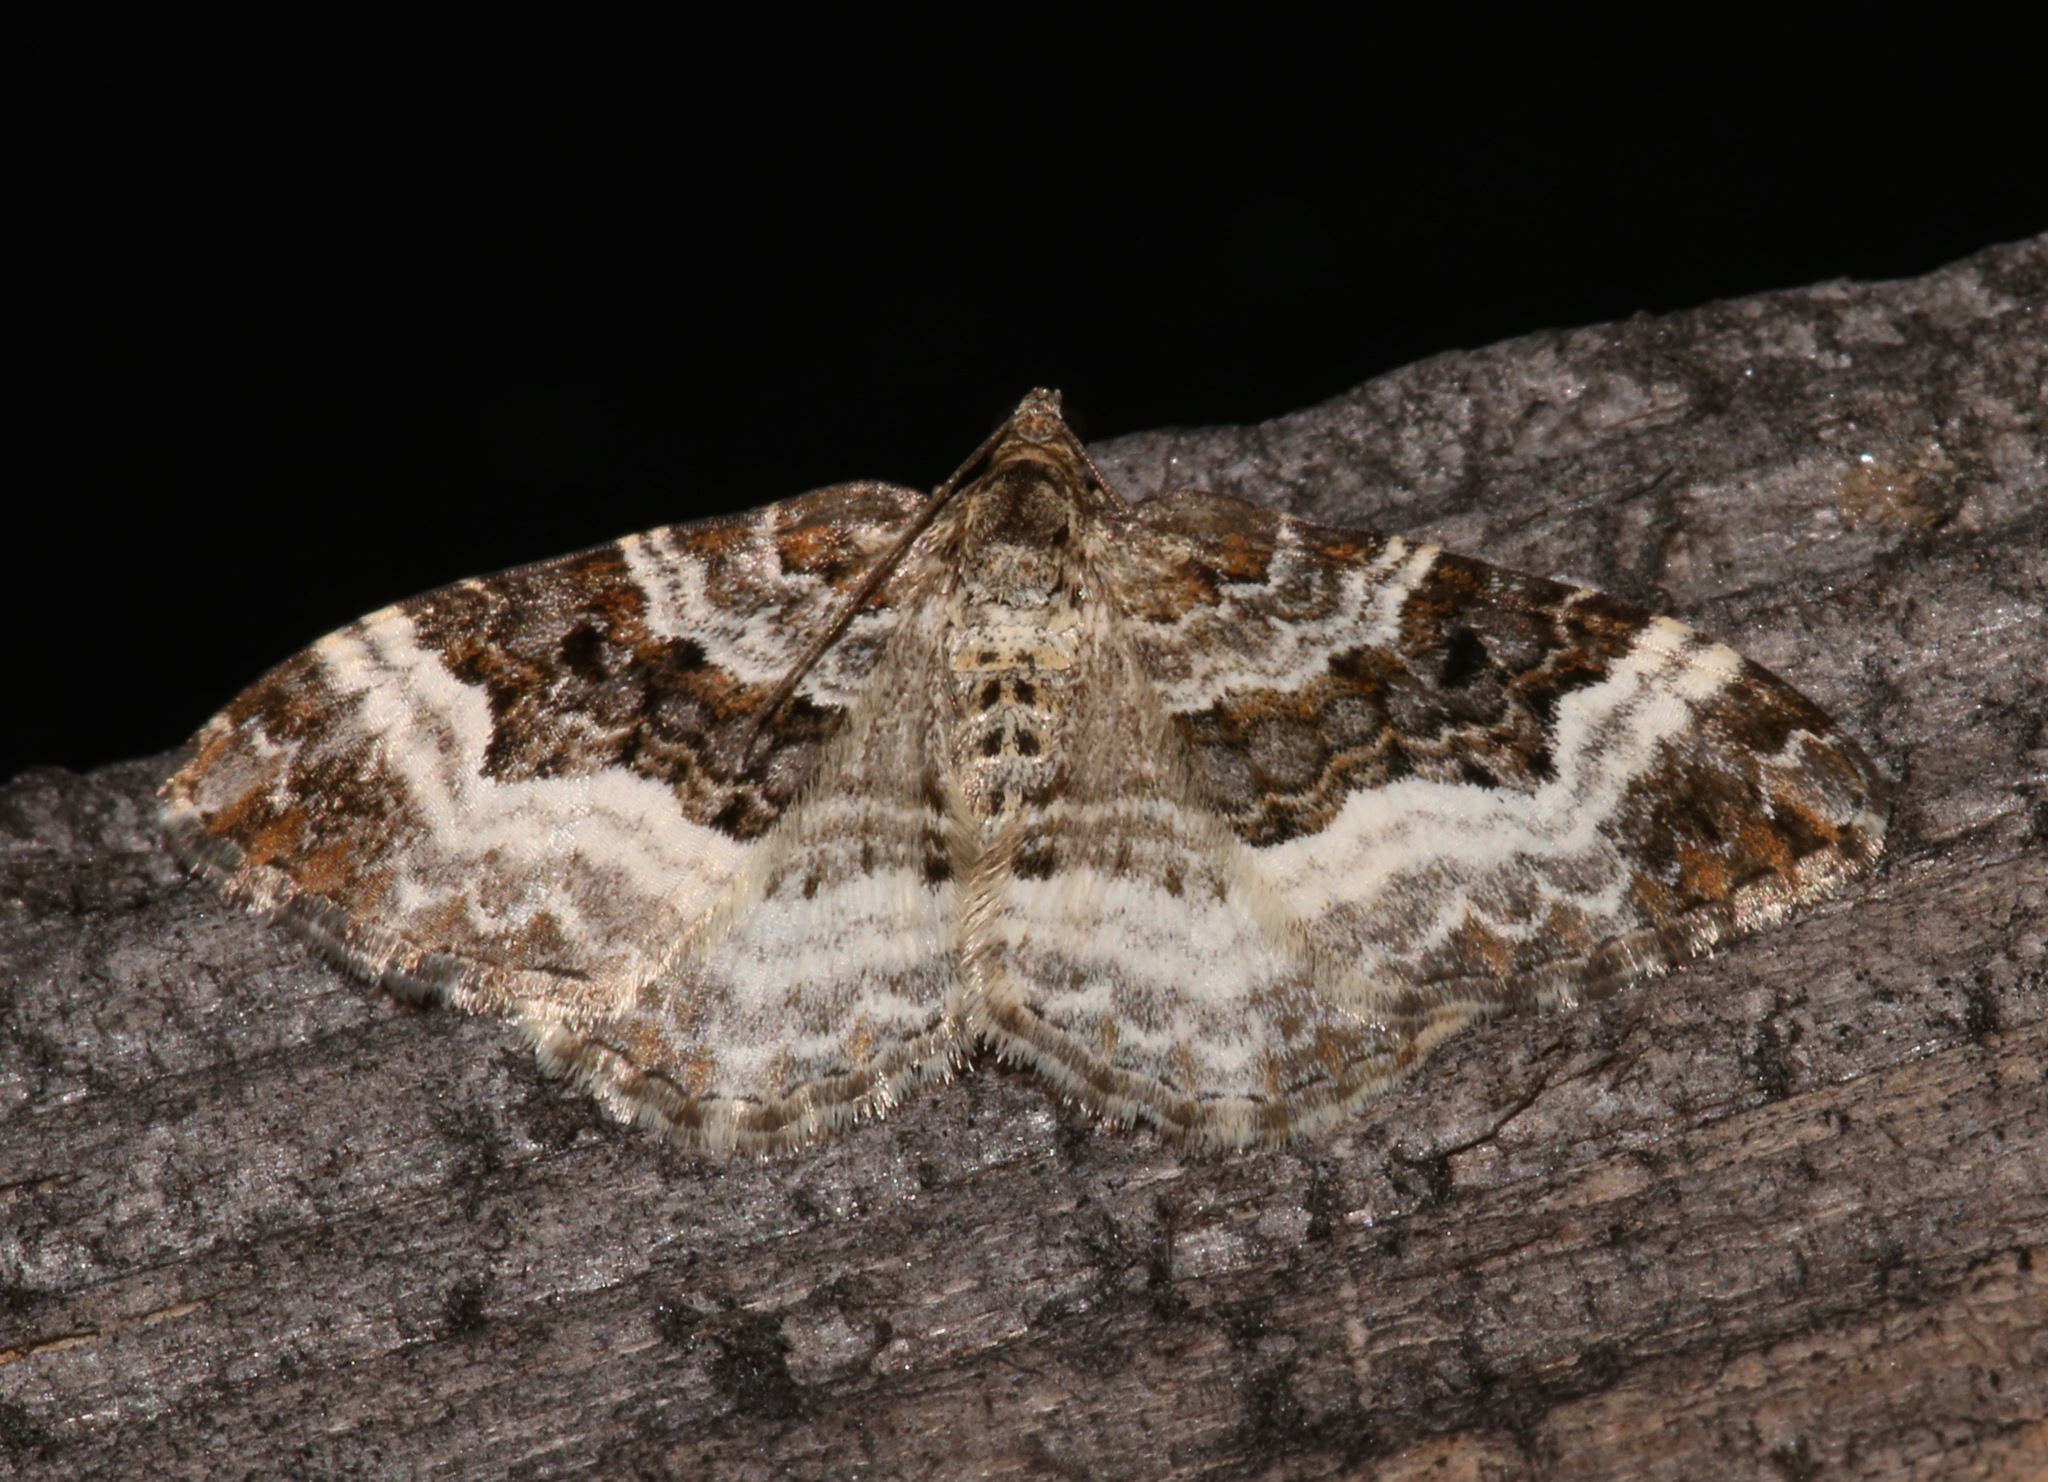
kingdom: Animalia
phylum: Arthropoda
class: Insecta
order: Lepidoptera
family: Geometridae
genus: Epirrhoe
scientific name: Epirrhoe alternata
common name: Common carpet
